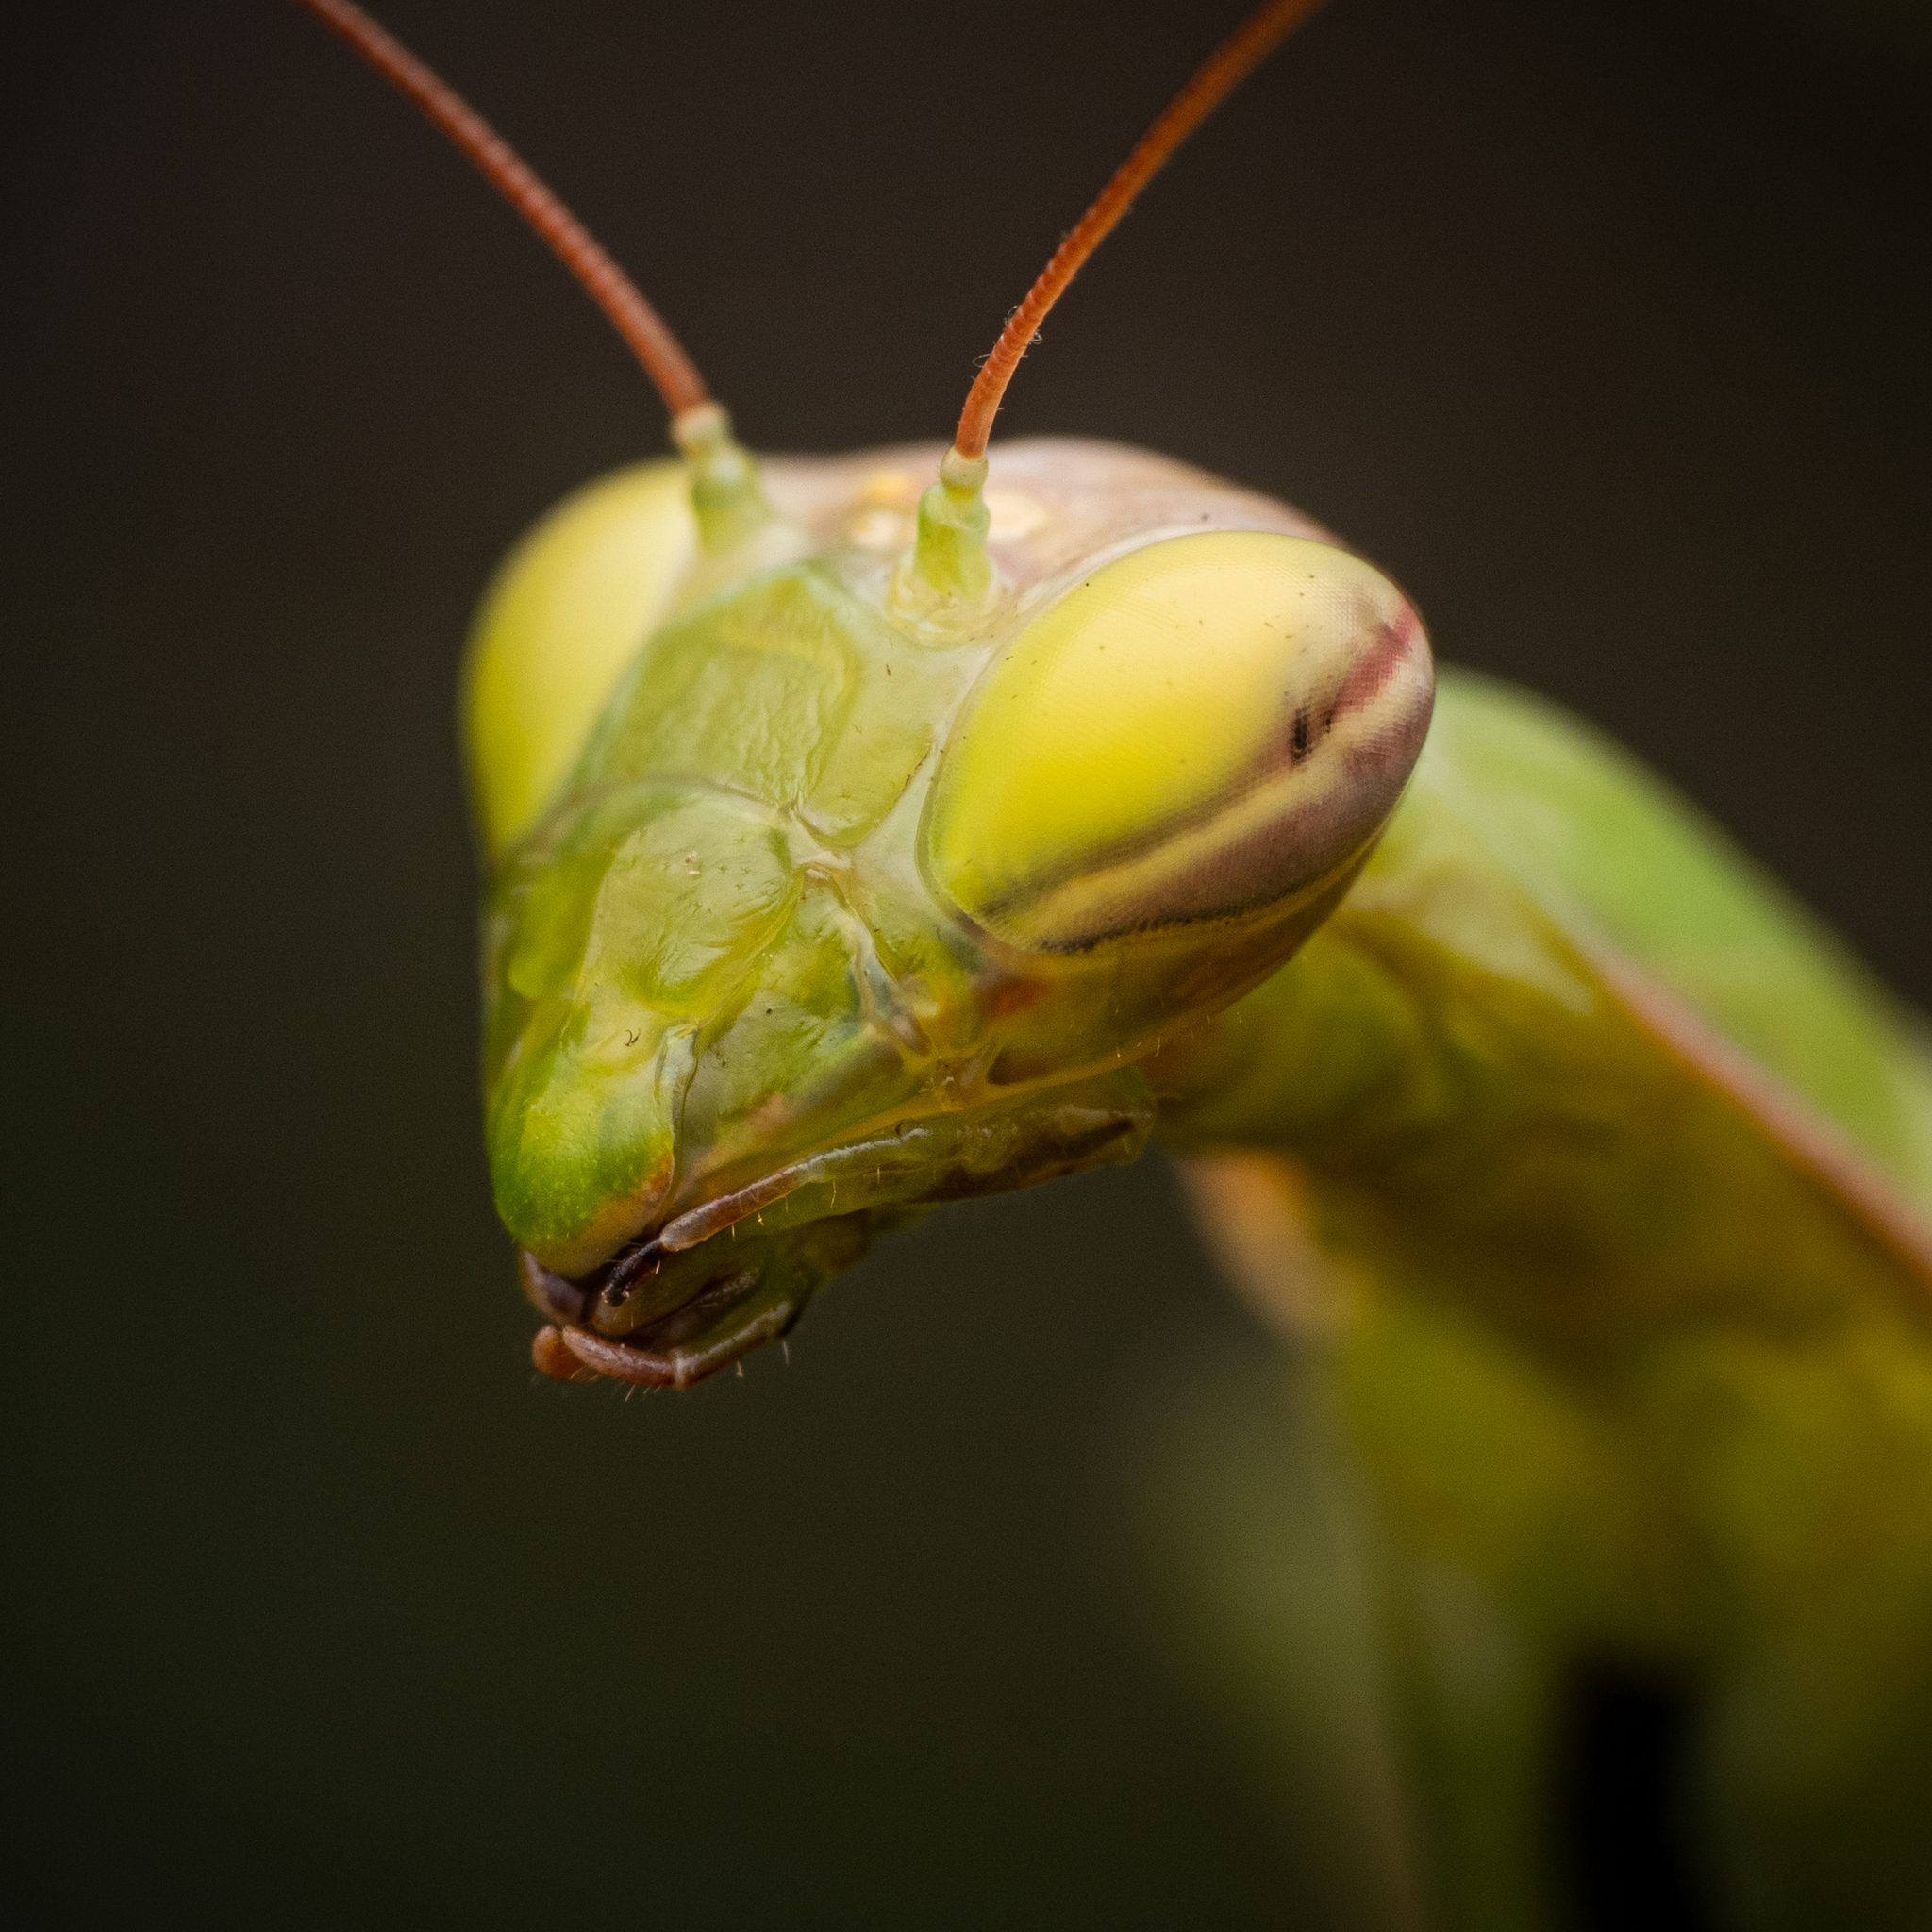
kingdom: Animalia
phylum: Arthropoda
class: Insecta
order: Mantodea
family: Mantidae
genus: Mantis
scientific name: Mantis religiosa
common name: Praying mantis
